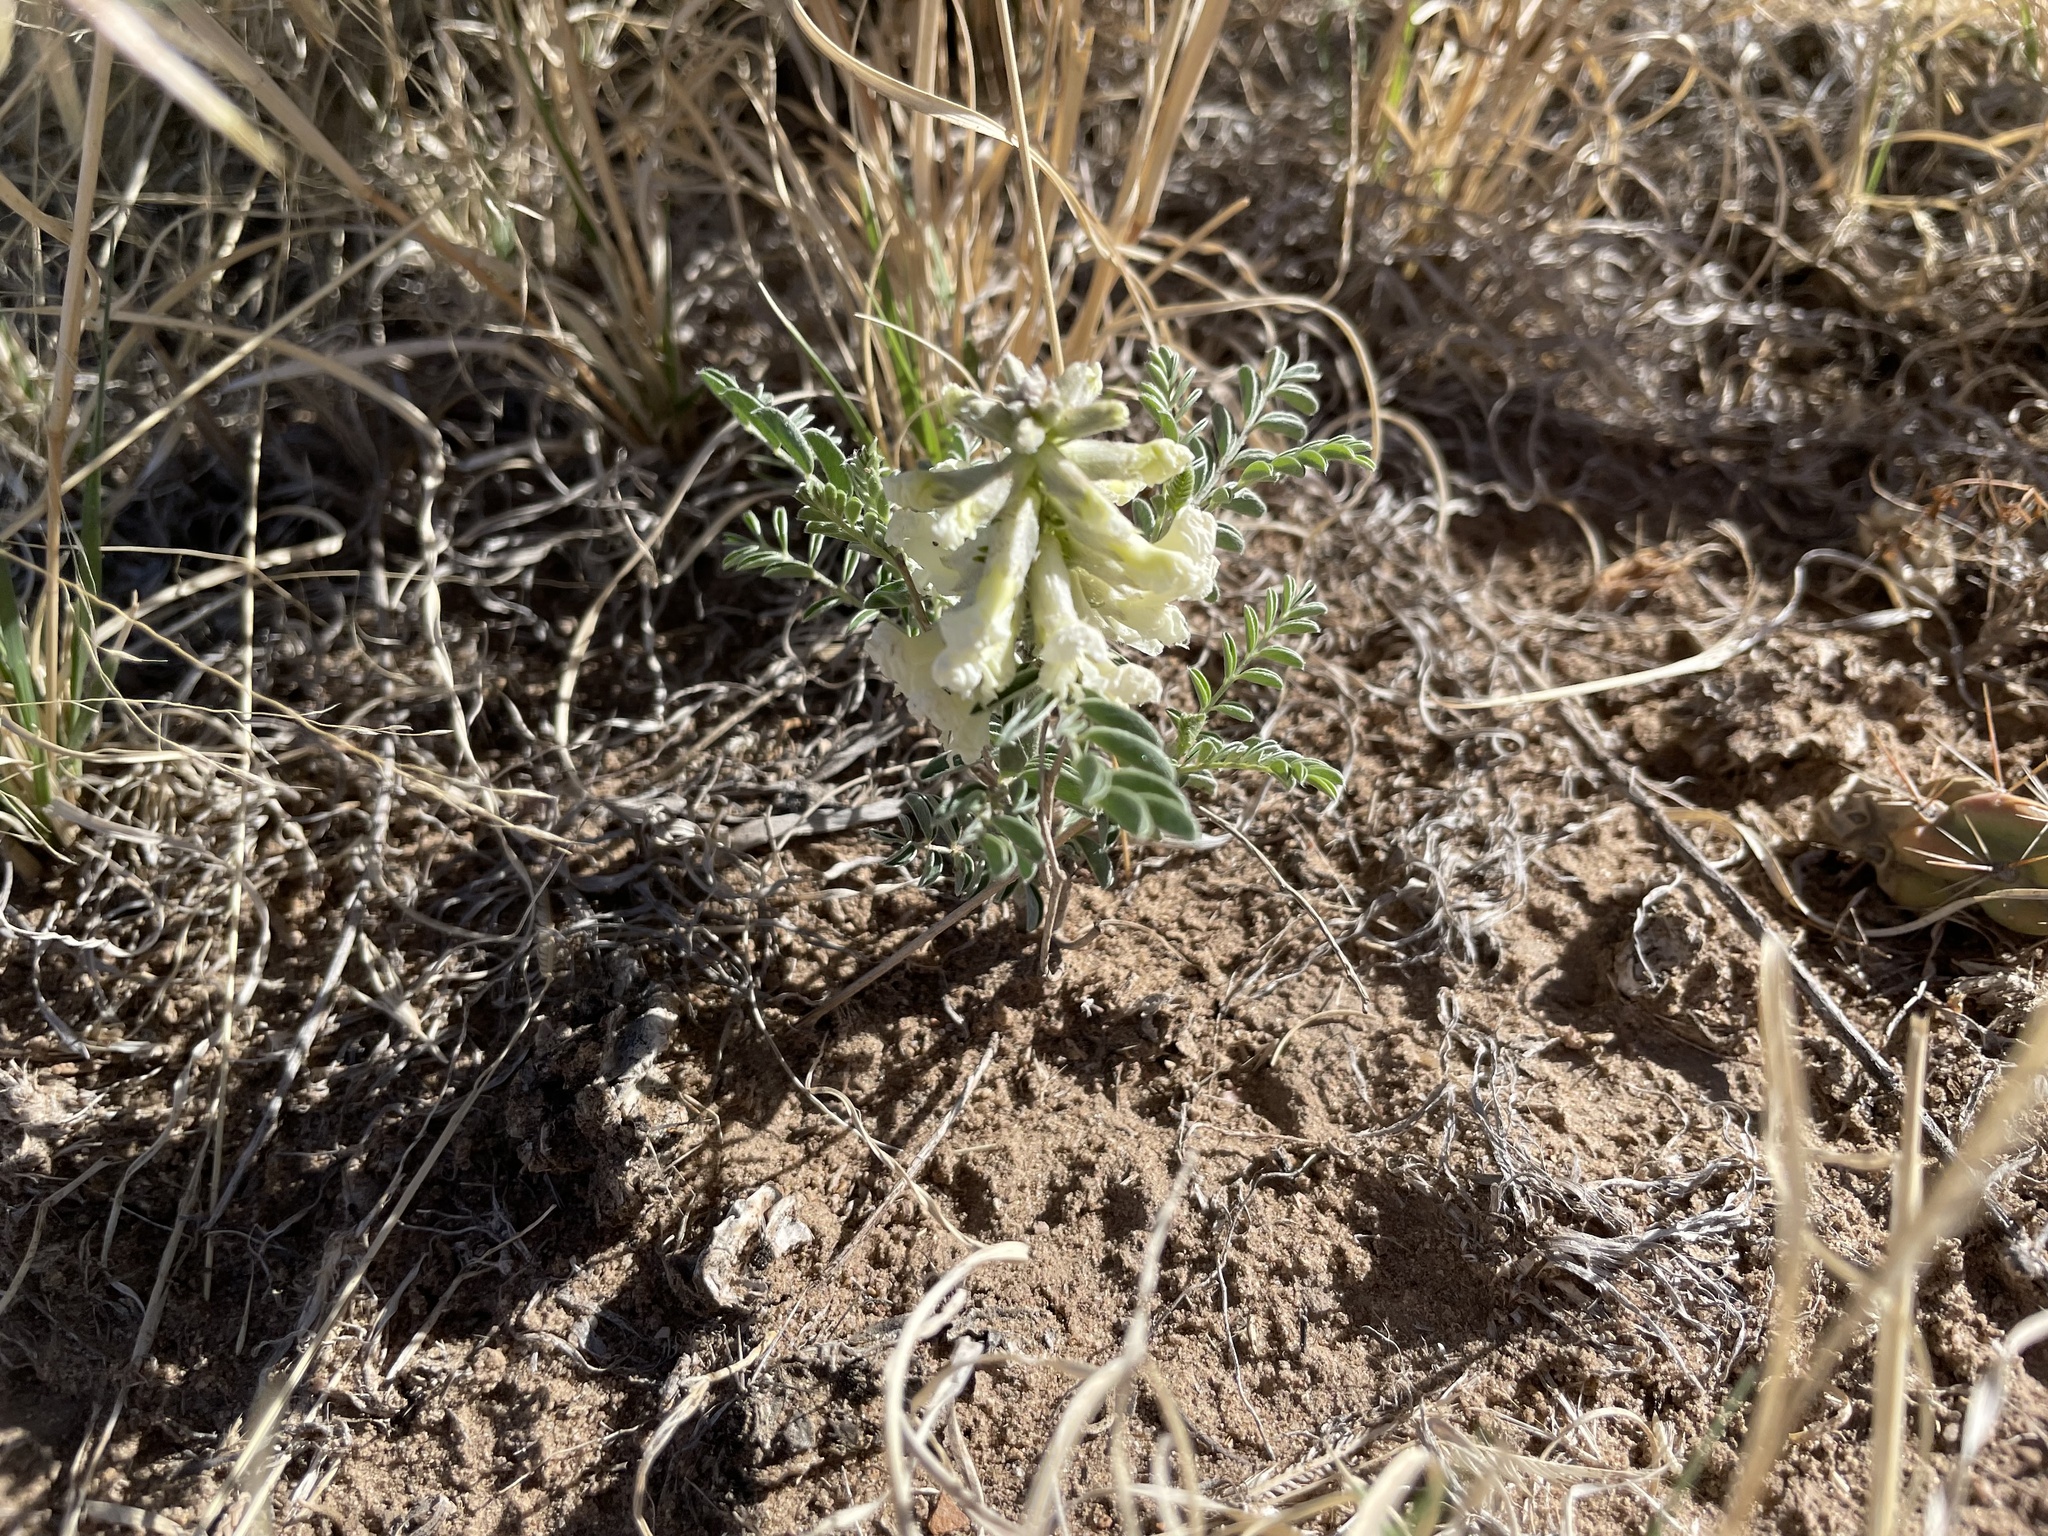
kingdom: Plantae
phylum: Tracheophyta
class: Magnoliopsida
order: Fabales
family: Fabaceae
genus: Sophora
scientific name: Sophora nuttalliana
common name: Silky sophora
